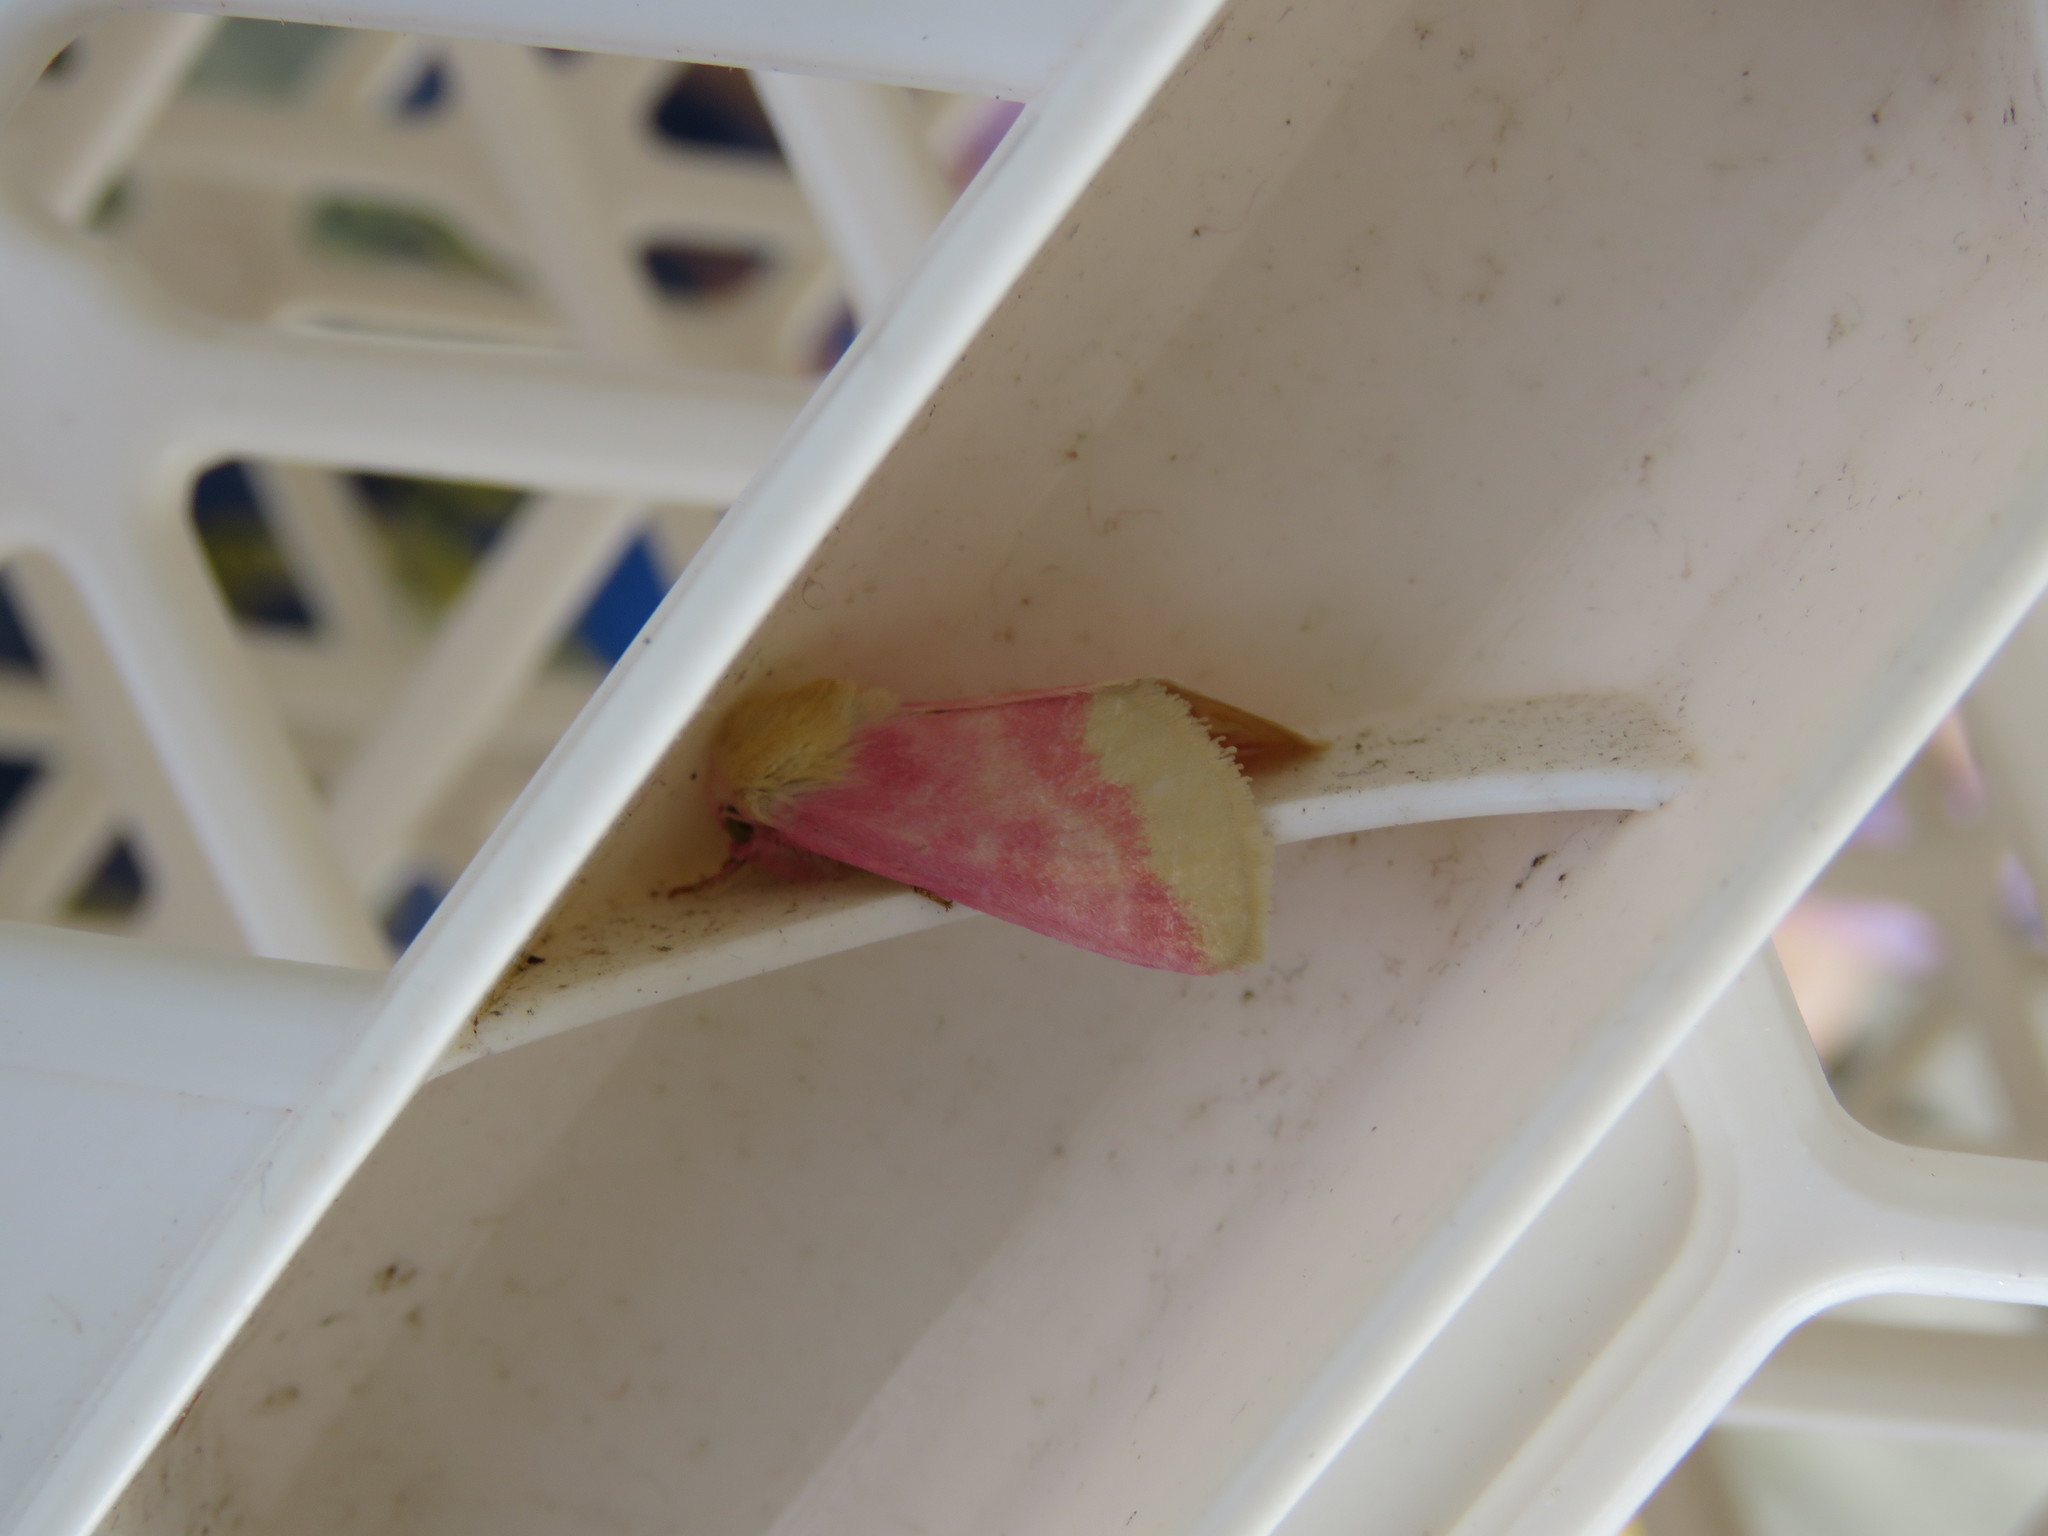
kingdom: Animalia
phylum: Arthropoda
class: Insecta
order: Lepidoptera
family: Noctuidae
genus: Schinia
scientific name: Schinia florida
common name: Primrose moth
